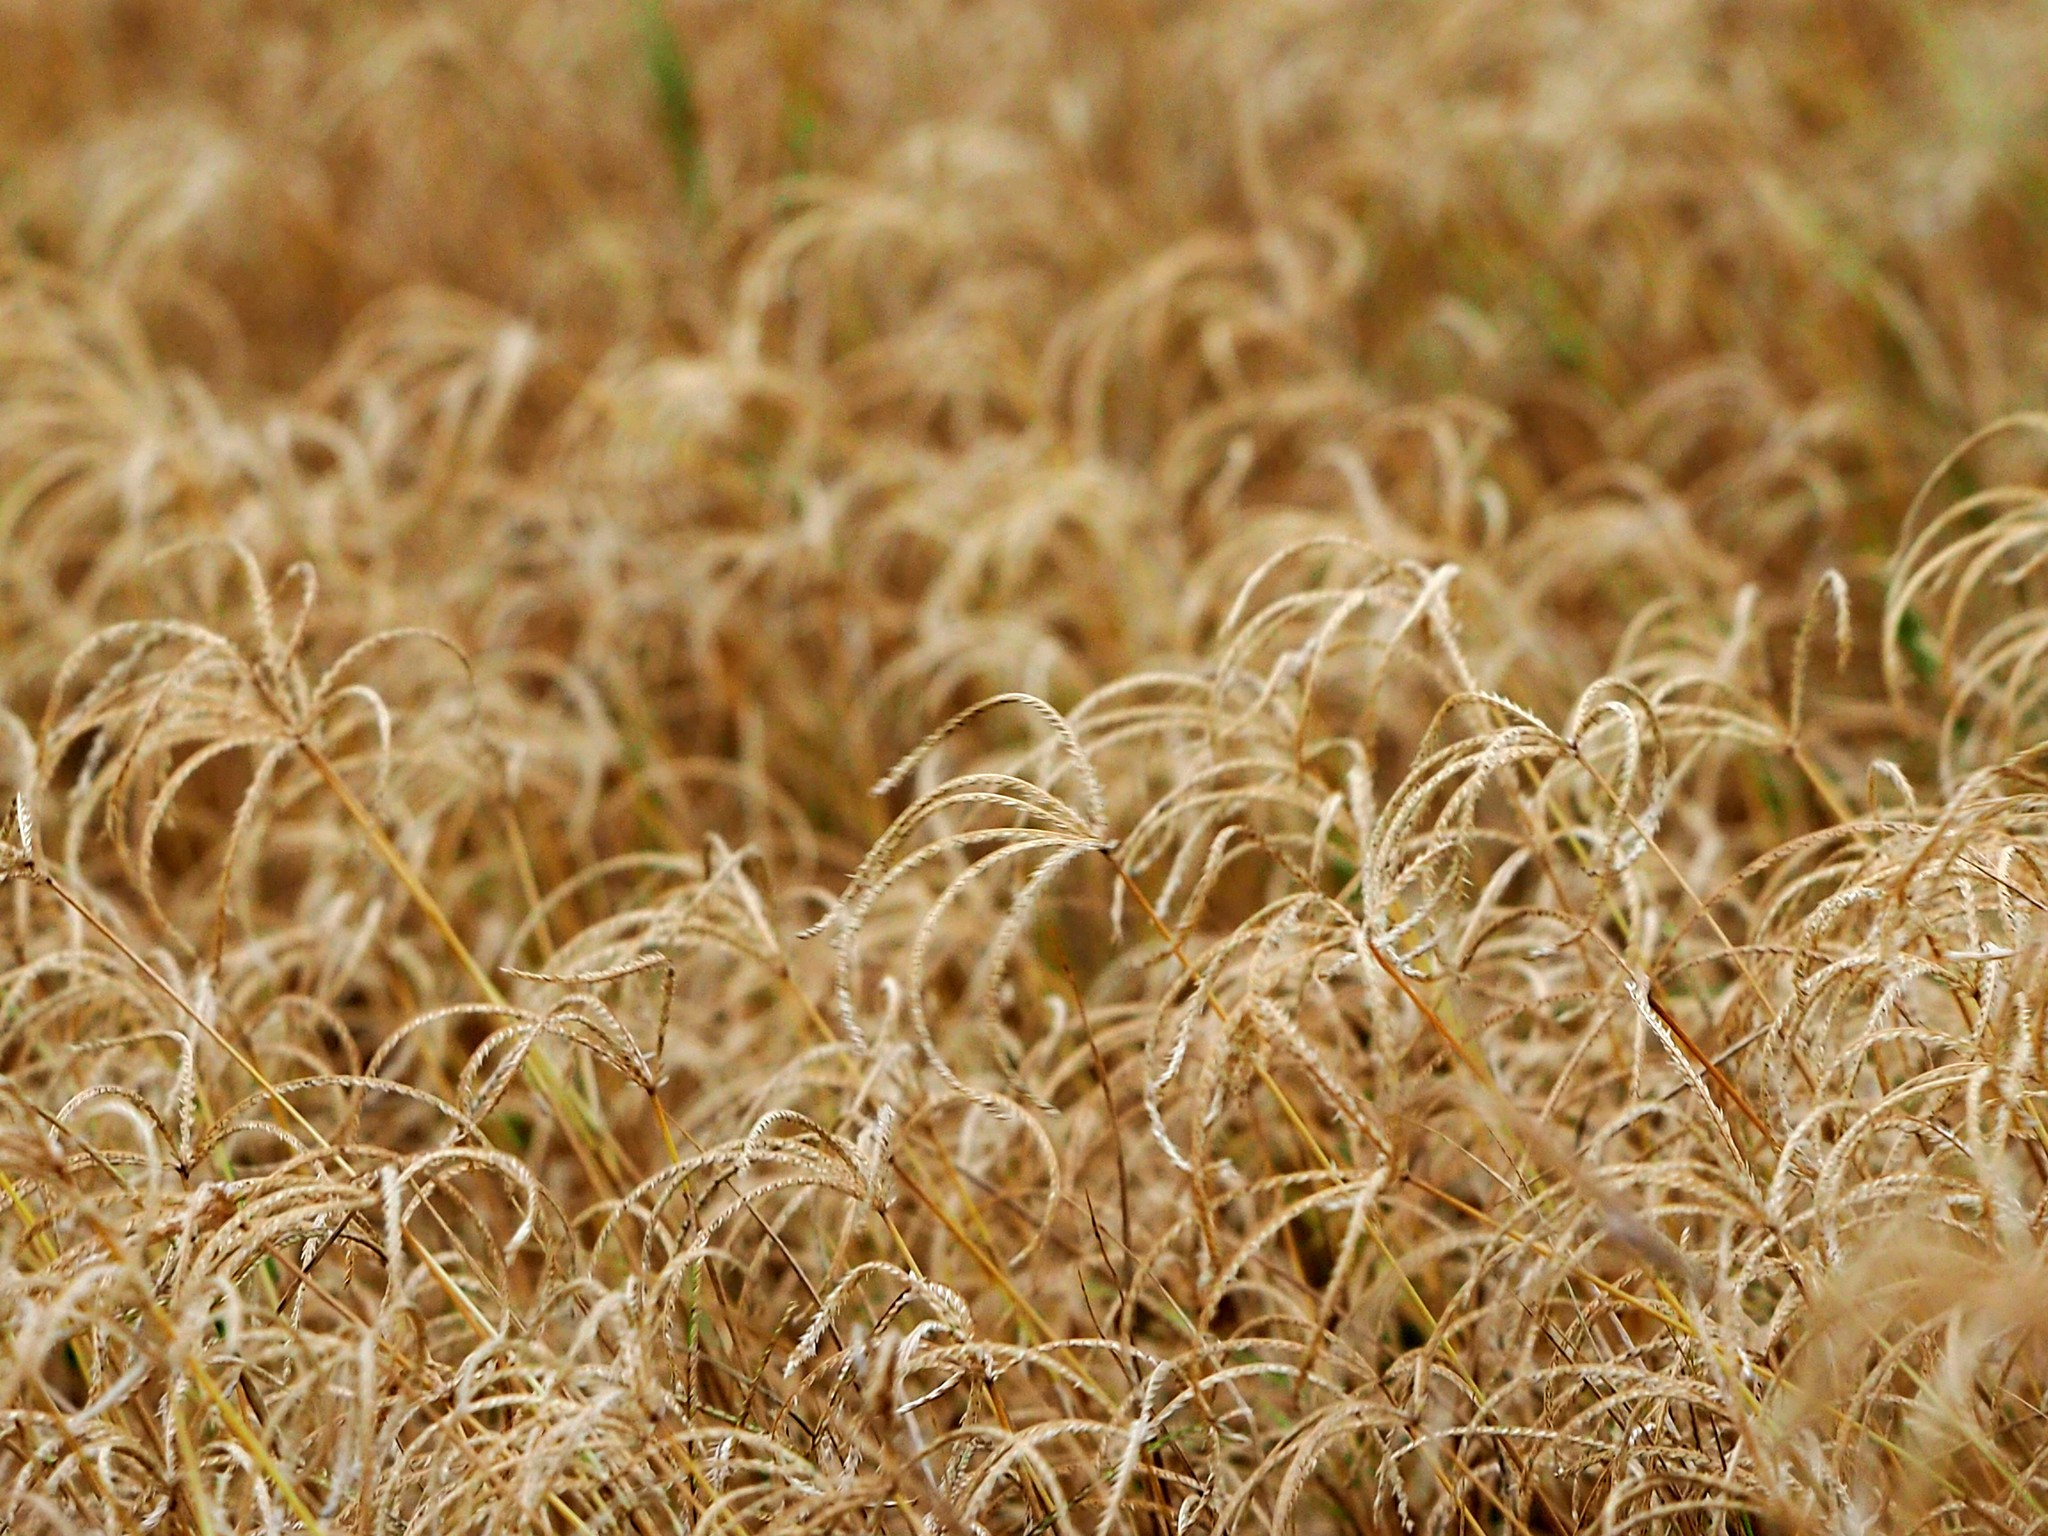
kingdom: Plantae
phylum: Tracheophyta
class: Liliopsida
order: Poales
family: Poaceae
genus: Cynodon
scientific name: Cynodon nlemfuensis
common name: African bermudagrass
